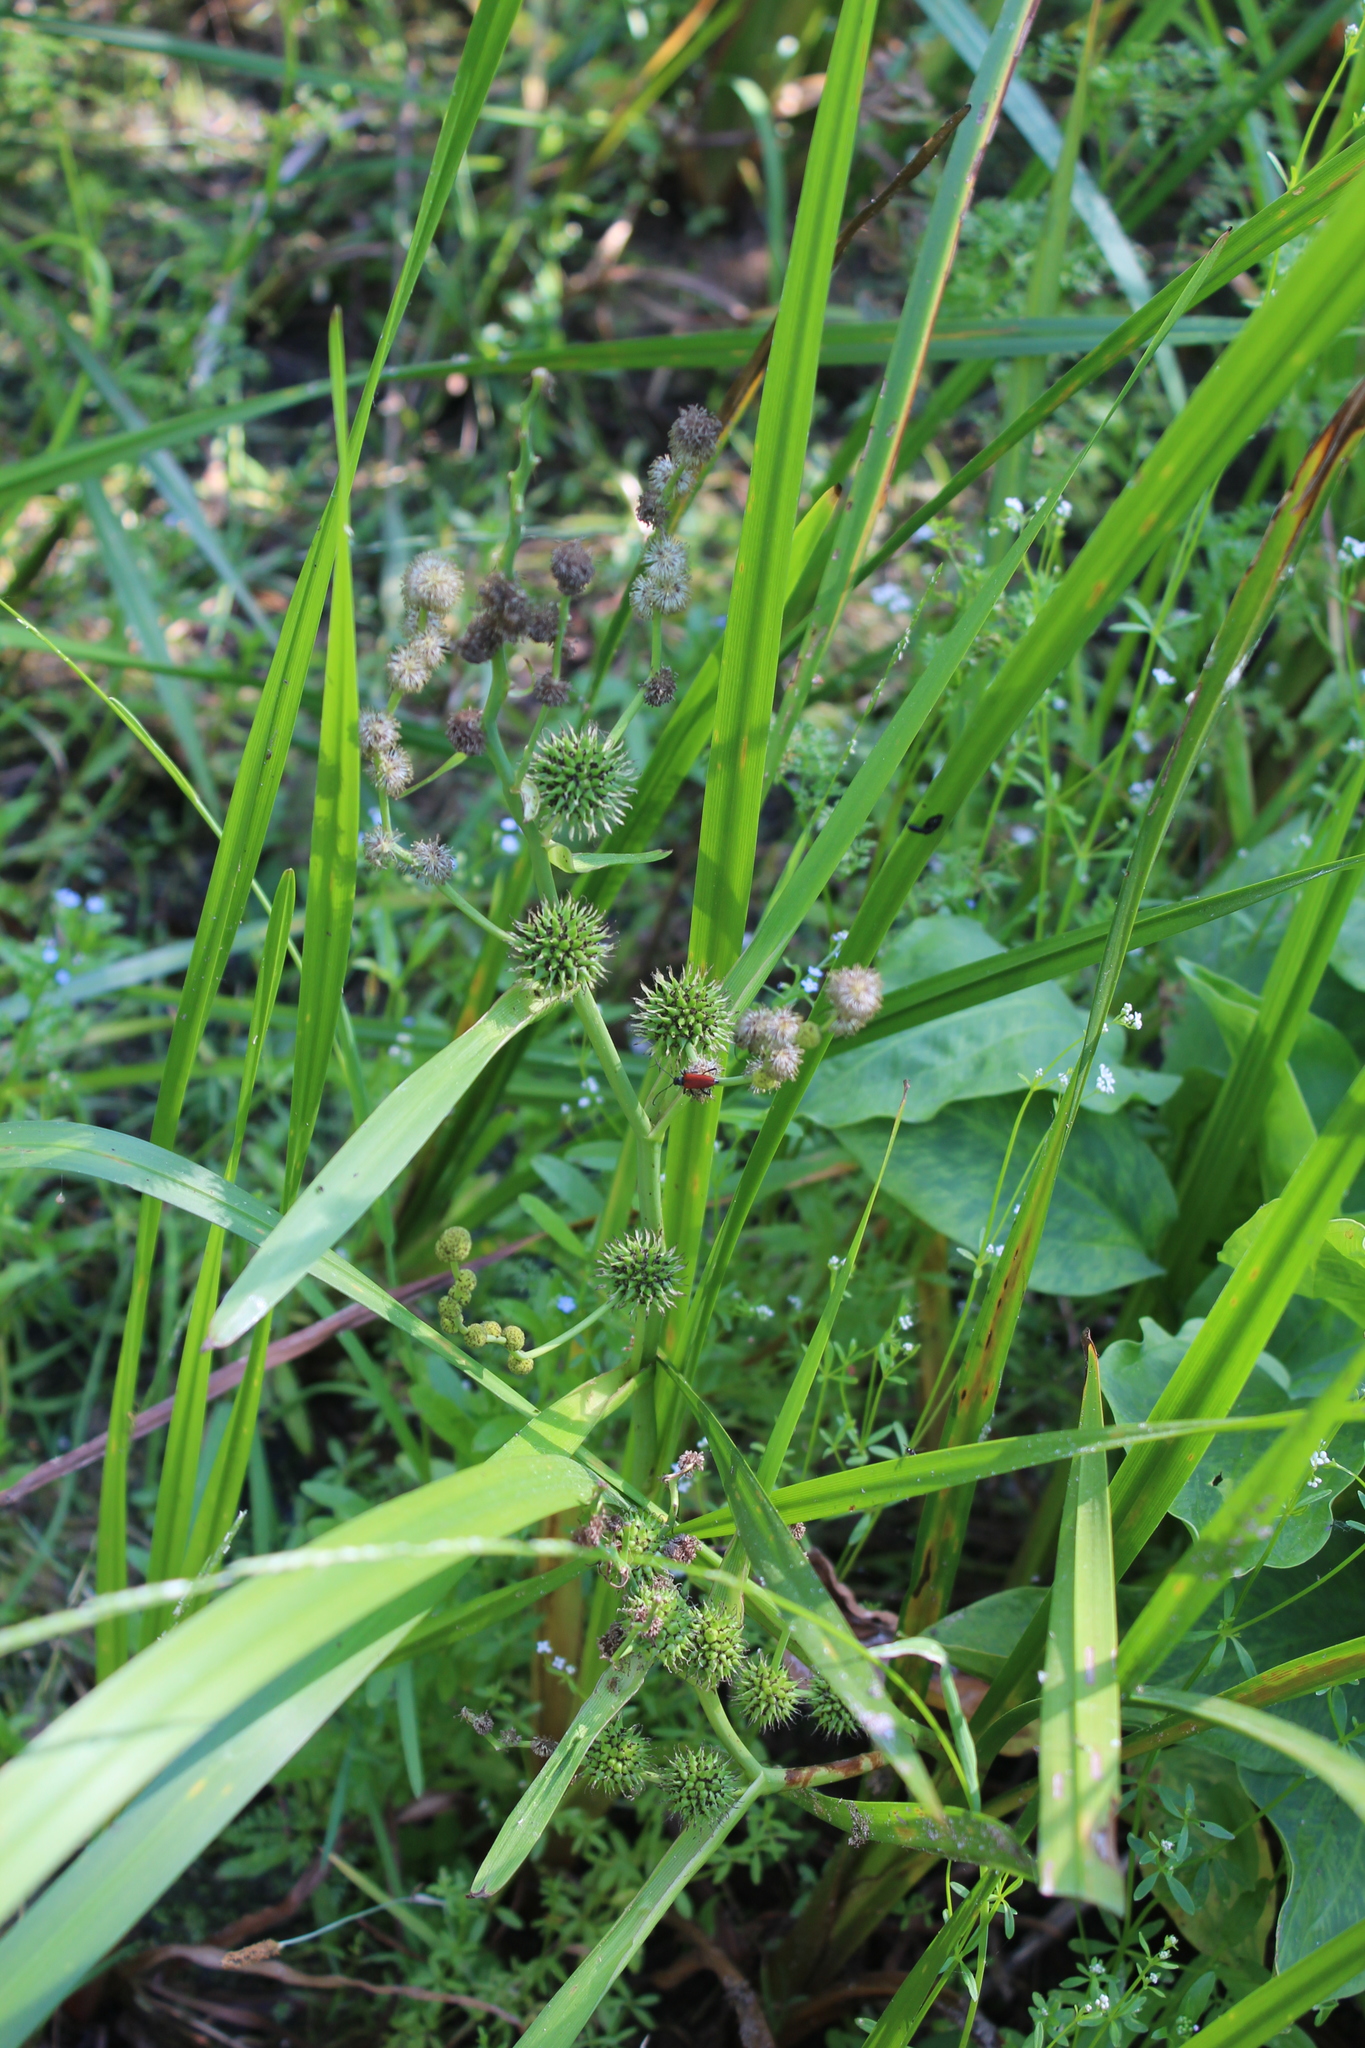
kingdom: Plantae
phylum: Tracheophyta
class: Liliopsida
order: Poales
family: Typhaceae
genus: Sparganium
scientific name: Sparganium erectum
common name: Branched bur-reed
